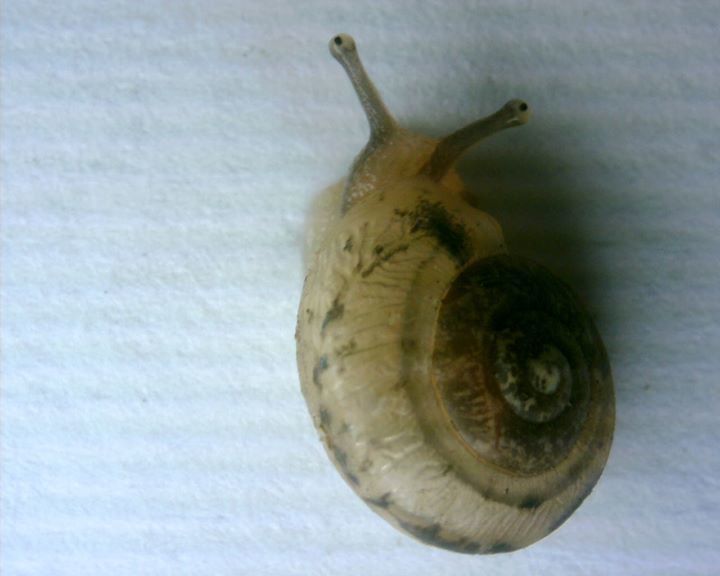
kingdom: Animalia
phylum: Mollusca
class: Gastropoda
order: Stylommatophora
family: Camaenidae
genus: Bradybaena
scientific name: Bradybaena similaris
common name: Asian trampsnail
